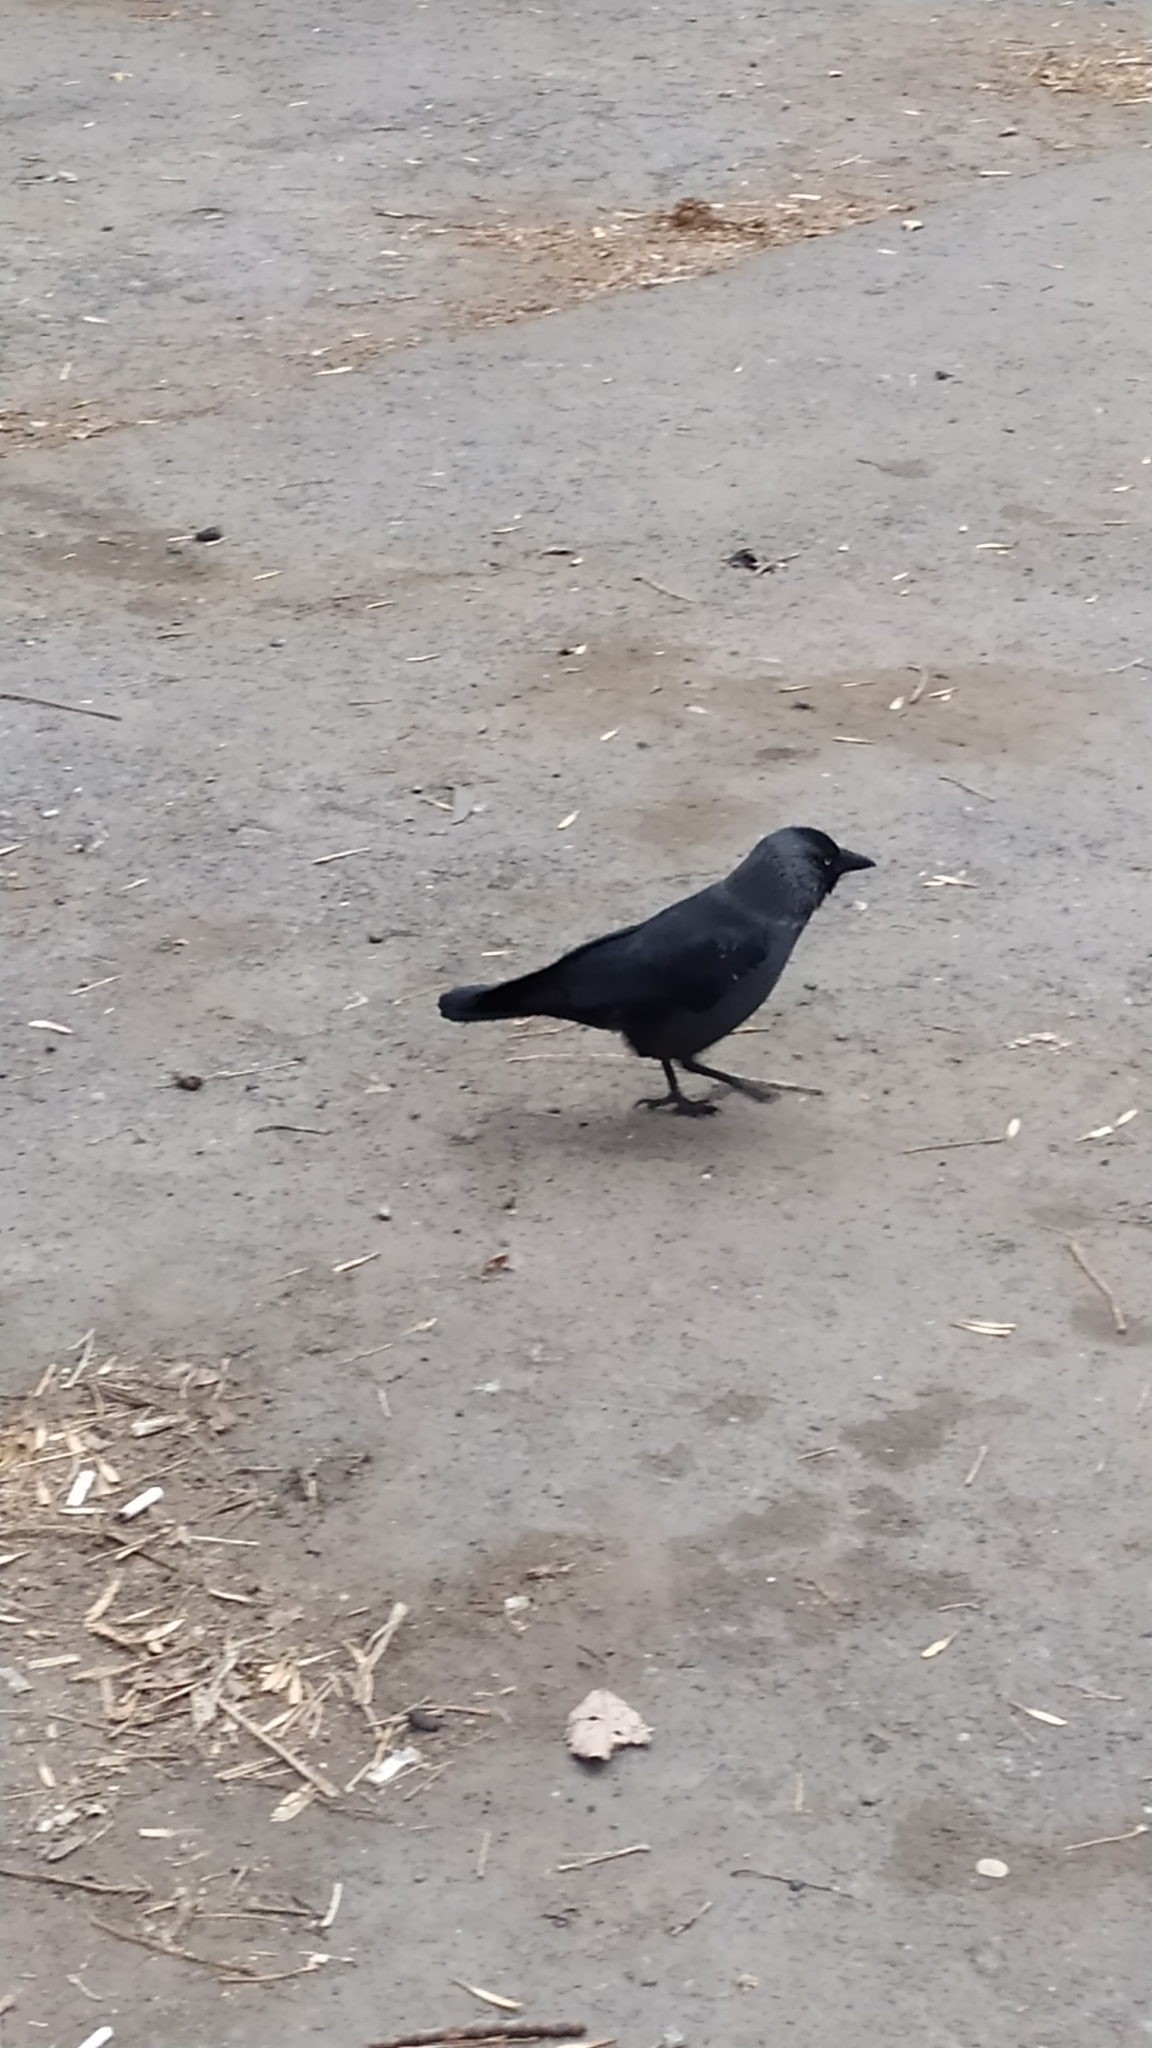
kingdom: Animalia
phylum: Chordata
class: Aves
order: Passeriformes
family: Corvidae
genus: Coloeus
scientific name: Coloeus monedula
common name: Western jackdaw
